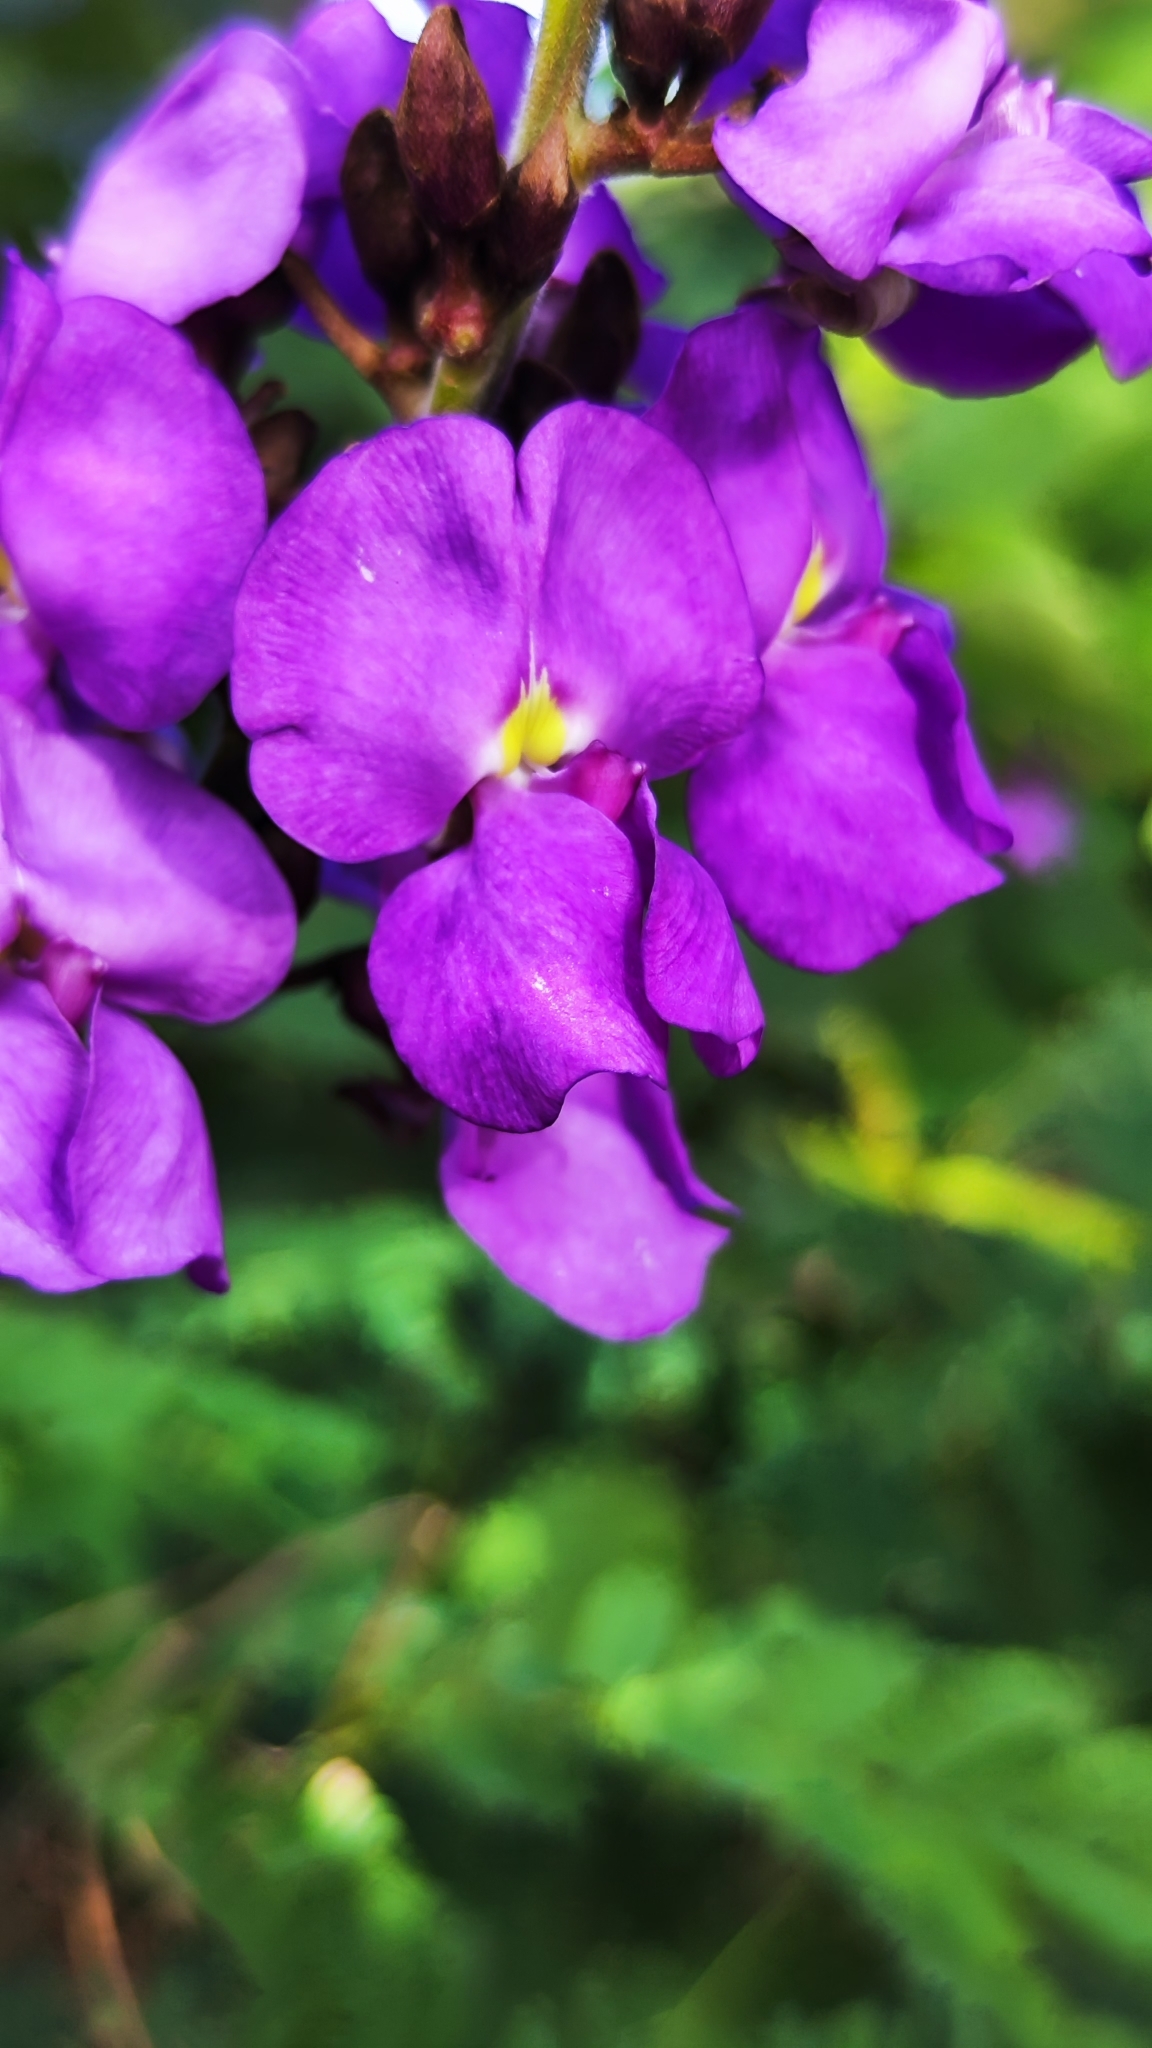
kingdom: Plantae
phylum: Tracheophyta
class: Magnoliopsida
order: Fabales
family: Fabaceae
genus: Macropsychanthus
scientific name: Macropsychanthus grandiflorus
